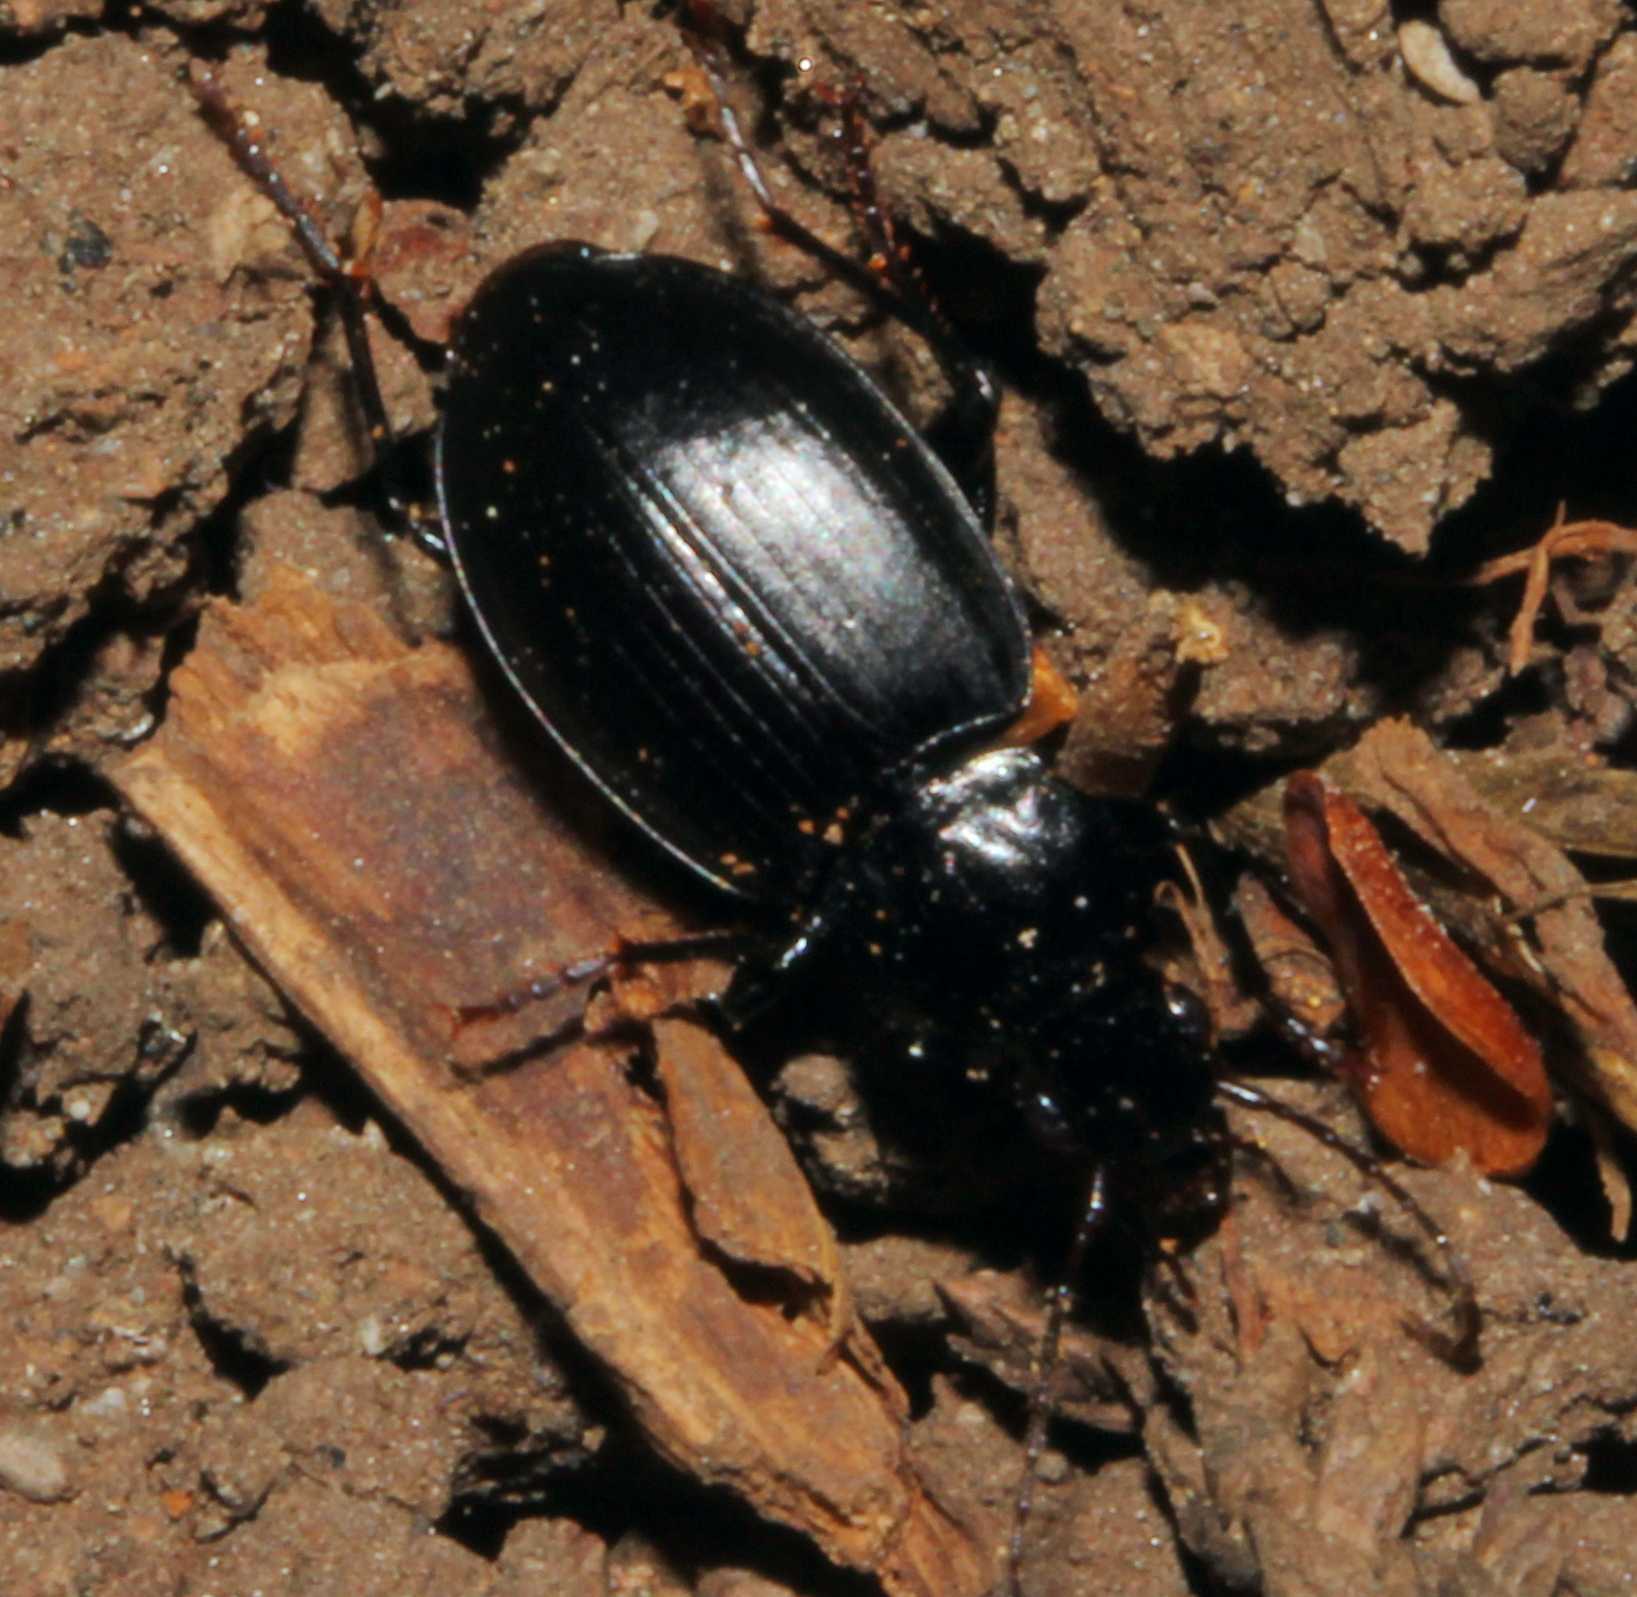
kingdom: Animalia
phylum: Arthropoda
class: Insecta
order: Coleoptera
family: Carabidae
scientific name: Carabidae
